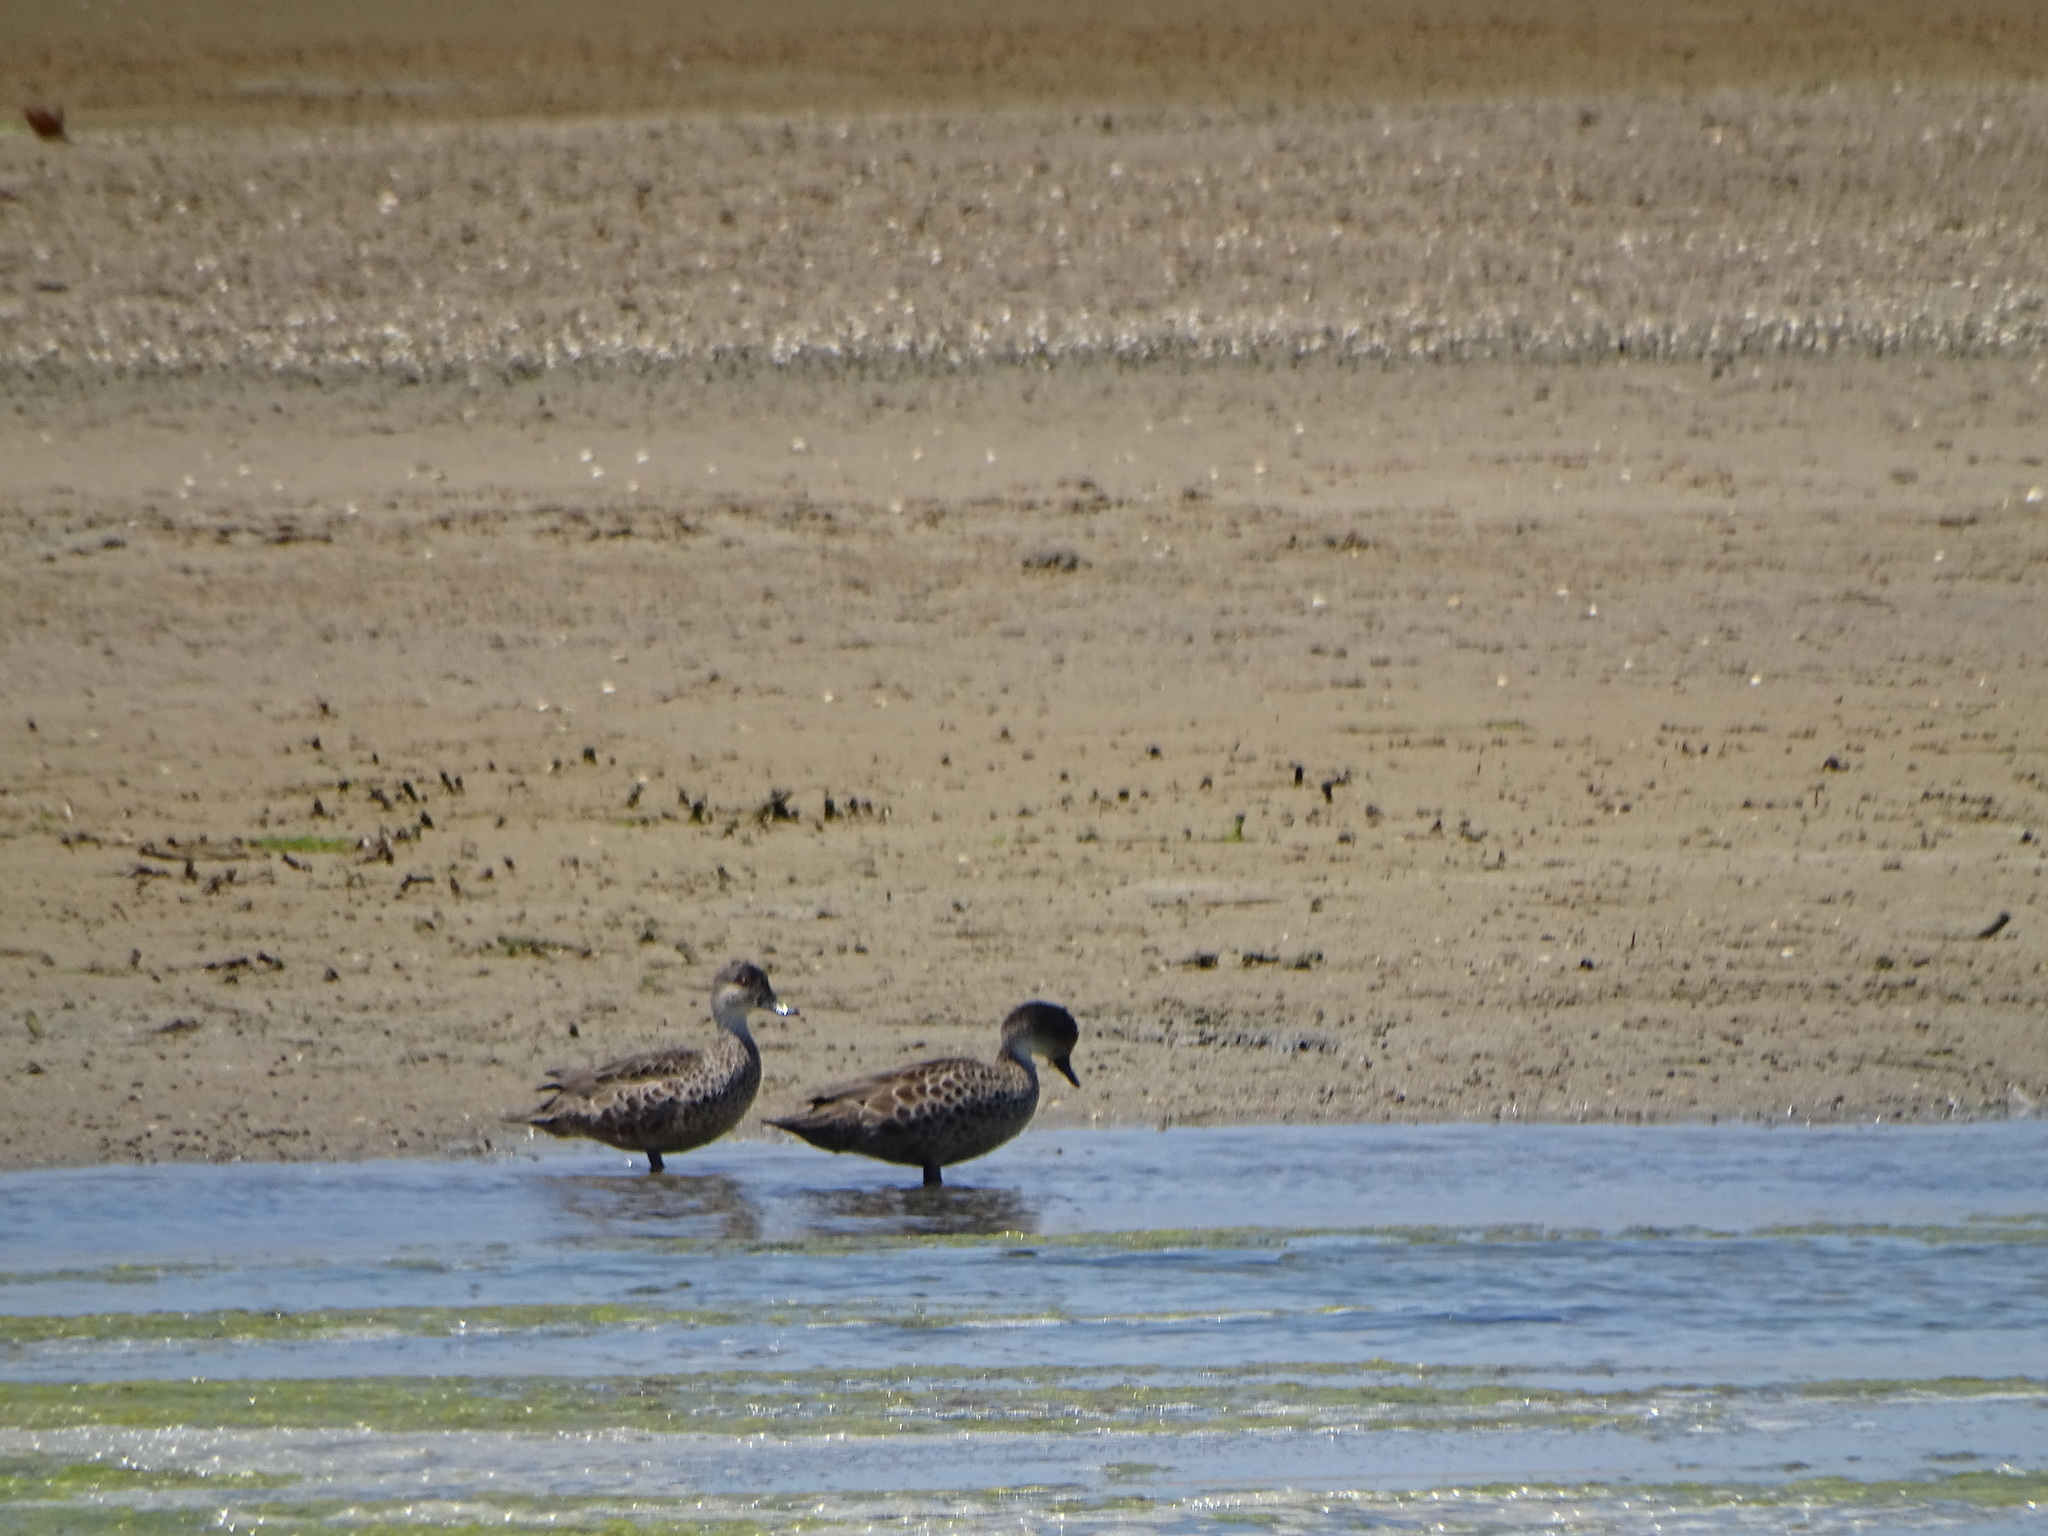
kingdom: Animalia
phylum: Chordata
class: Aves
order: Anseriformes
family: Anatidae
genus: Anas
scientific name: Anas gracilis
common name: Grey teal
